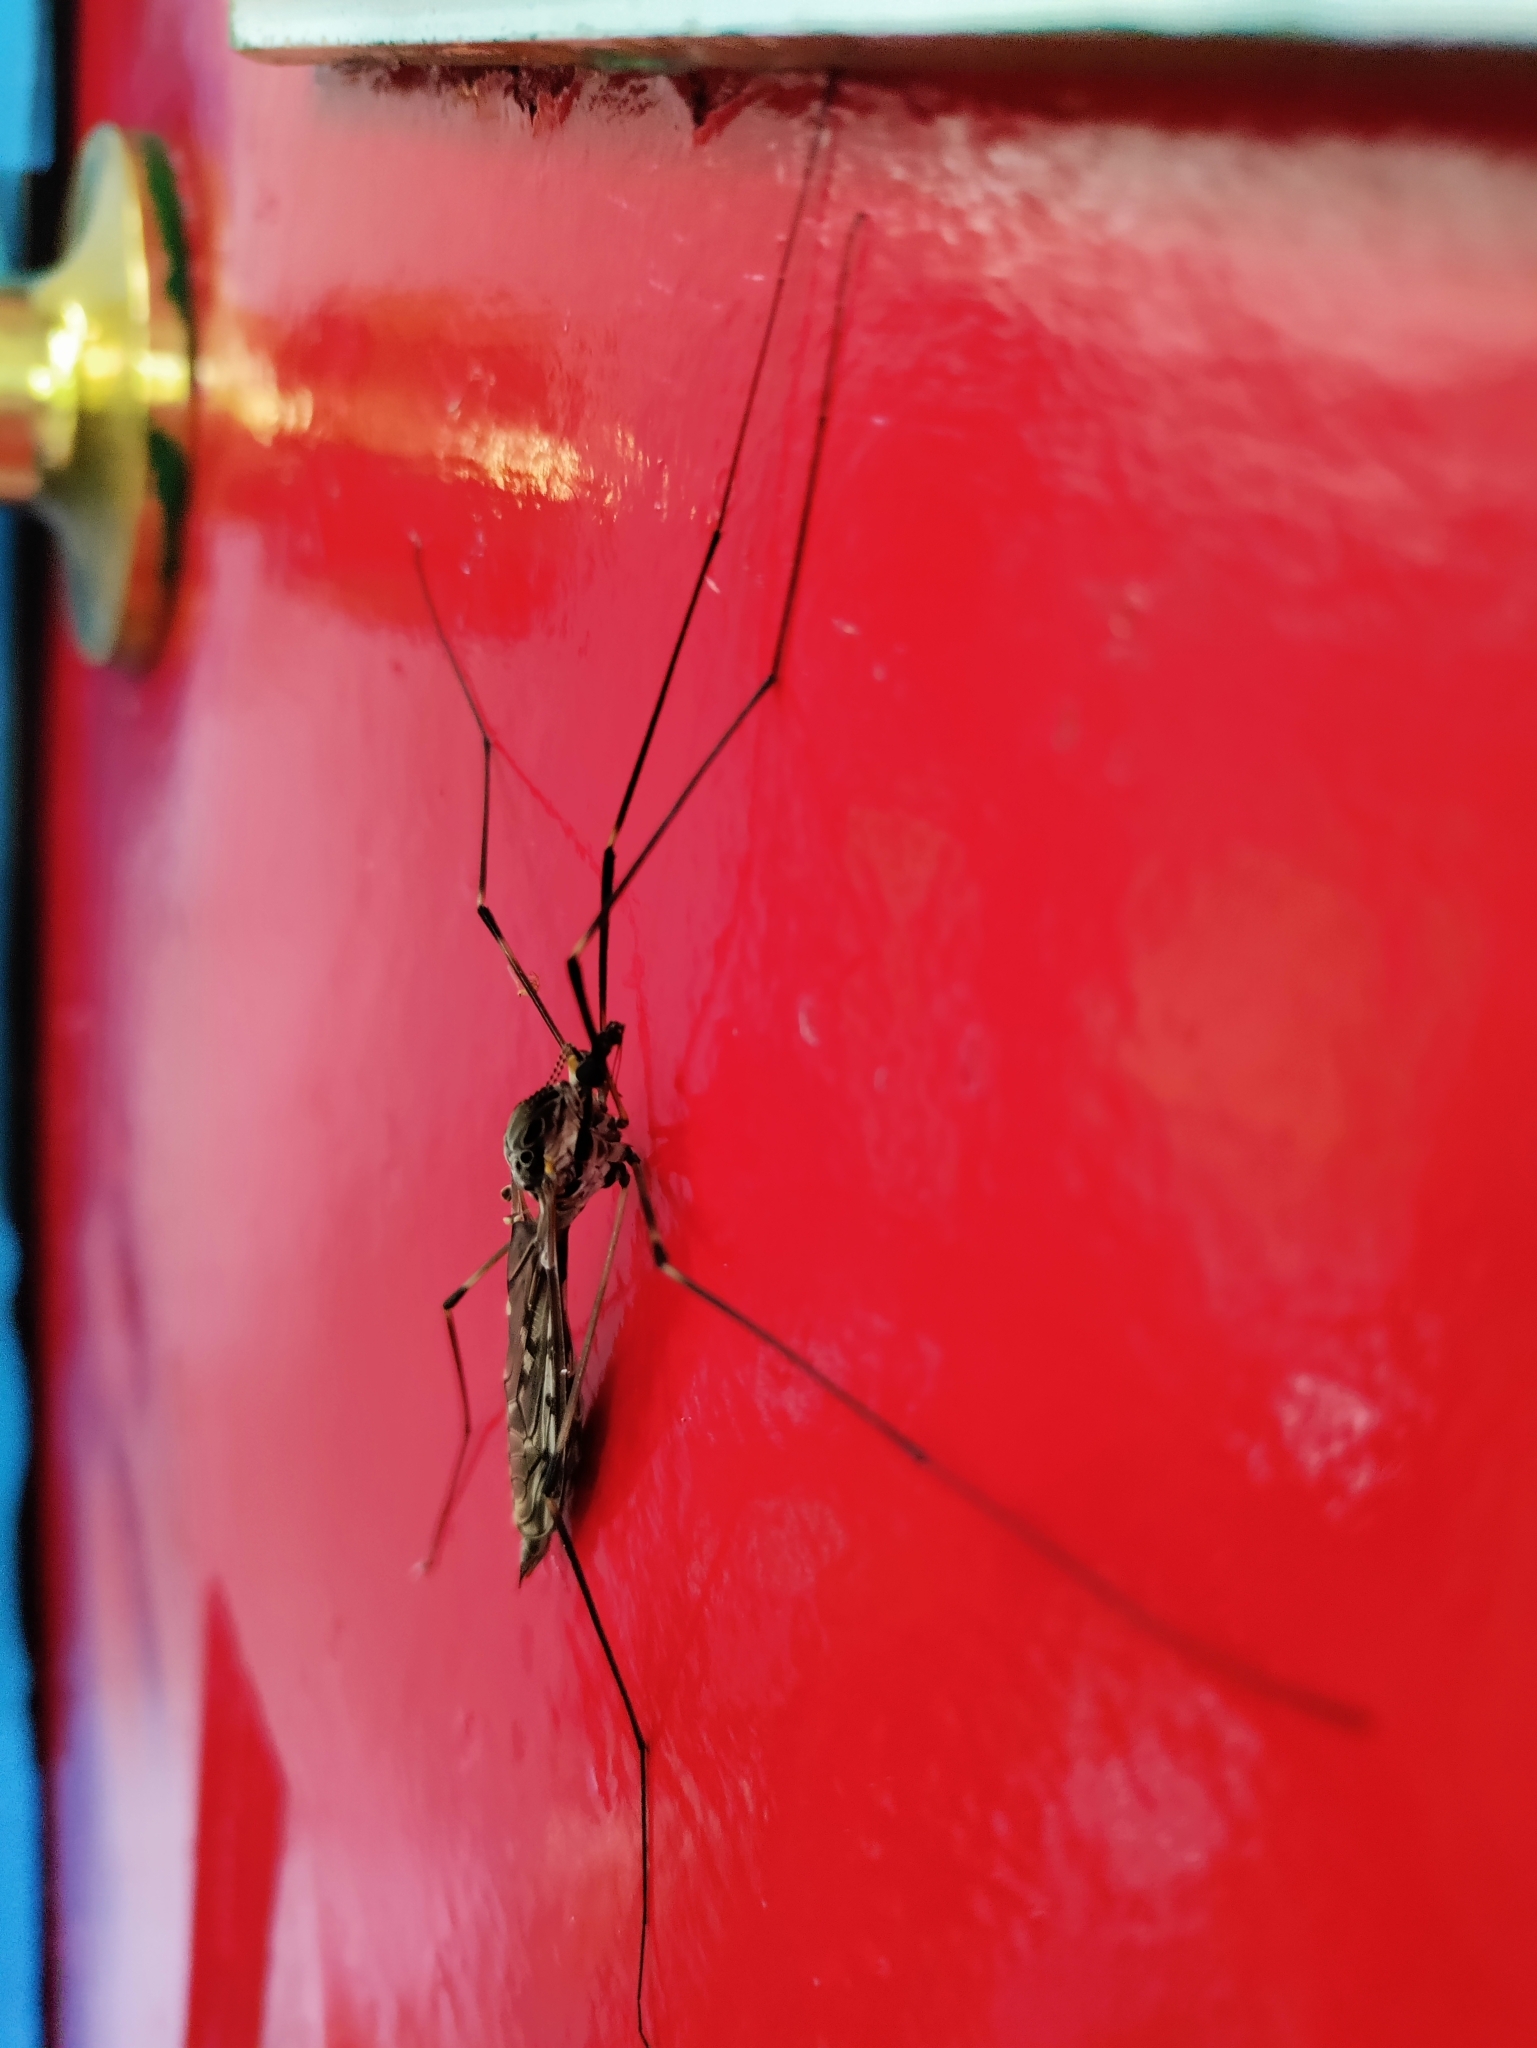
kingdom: Animalia
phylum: Arthropoda
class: Insecta
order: Diptera
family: Tipulidae
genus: Tipula
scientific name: Tipula abdominalis
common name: Giant crane fly
